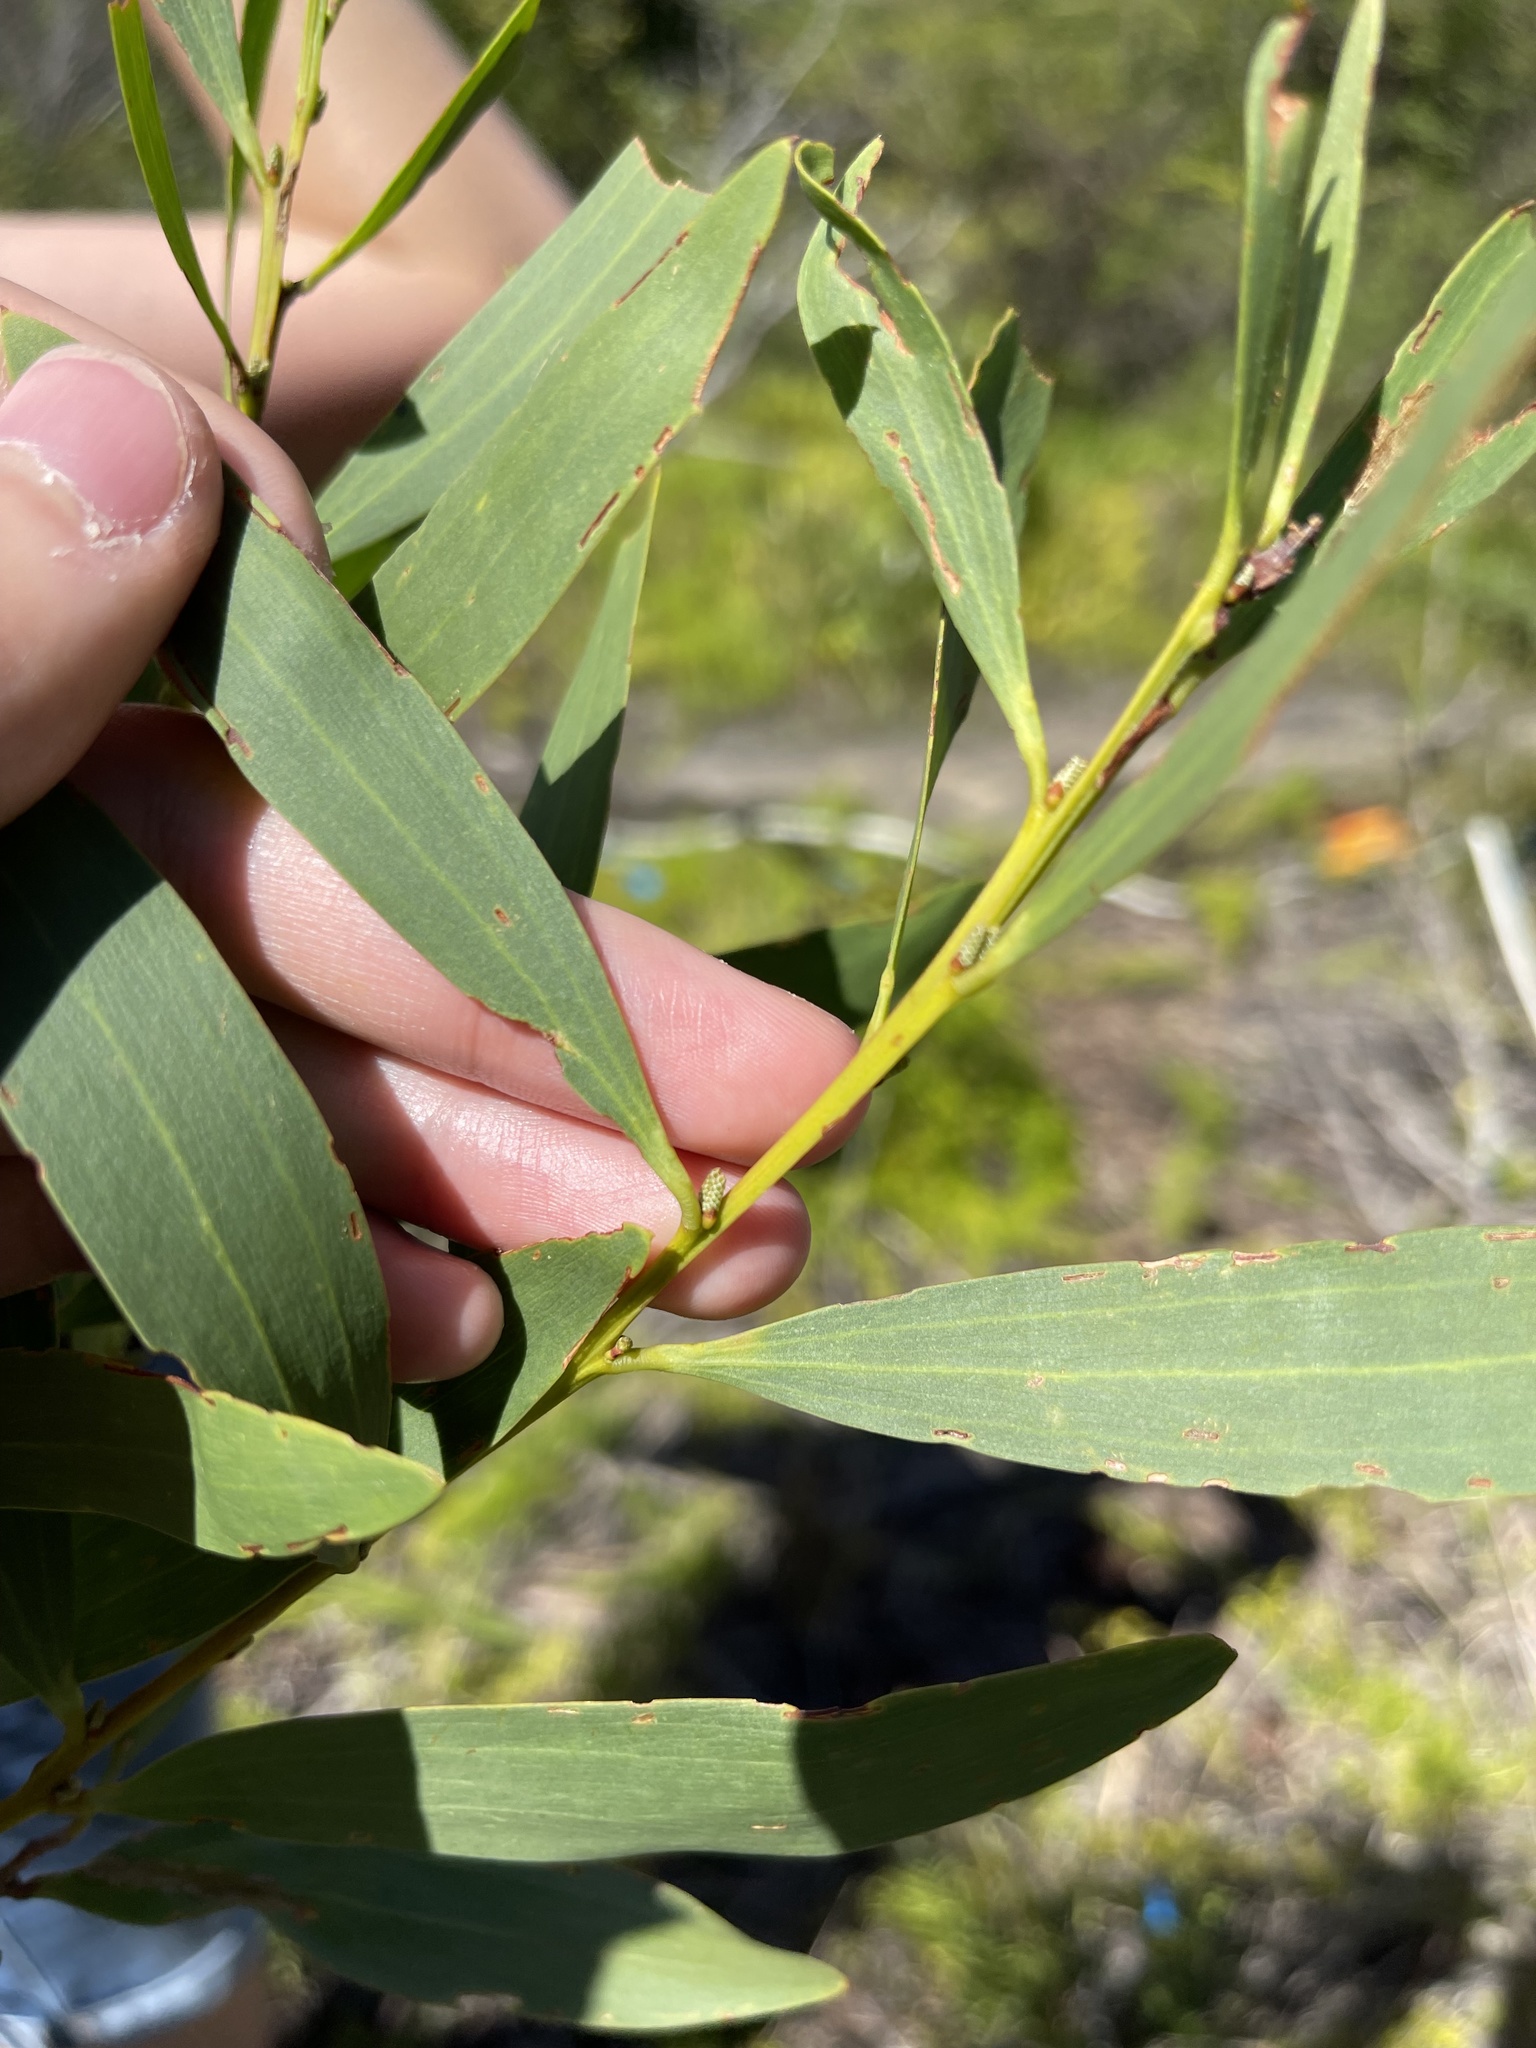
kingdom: Plantae
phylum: Tracheophyta
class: Magnoliopsida
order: Fabales
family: Fabaceae
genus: Acacia
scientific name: Acacia longifolia
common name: Sydney golden wattle
